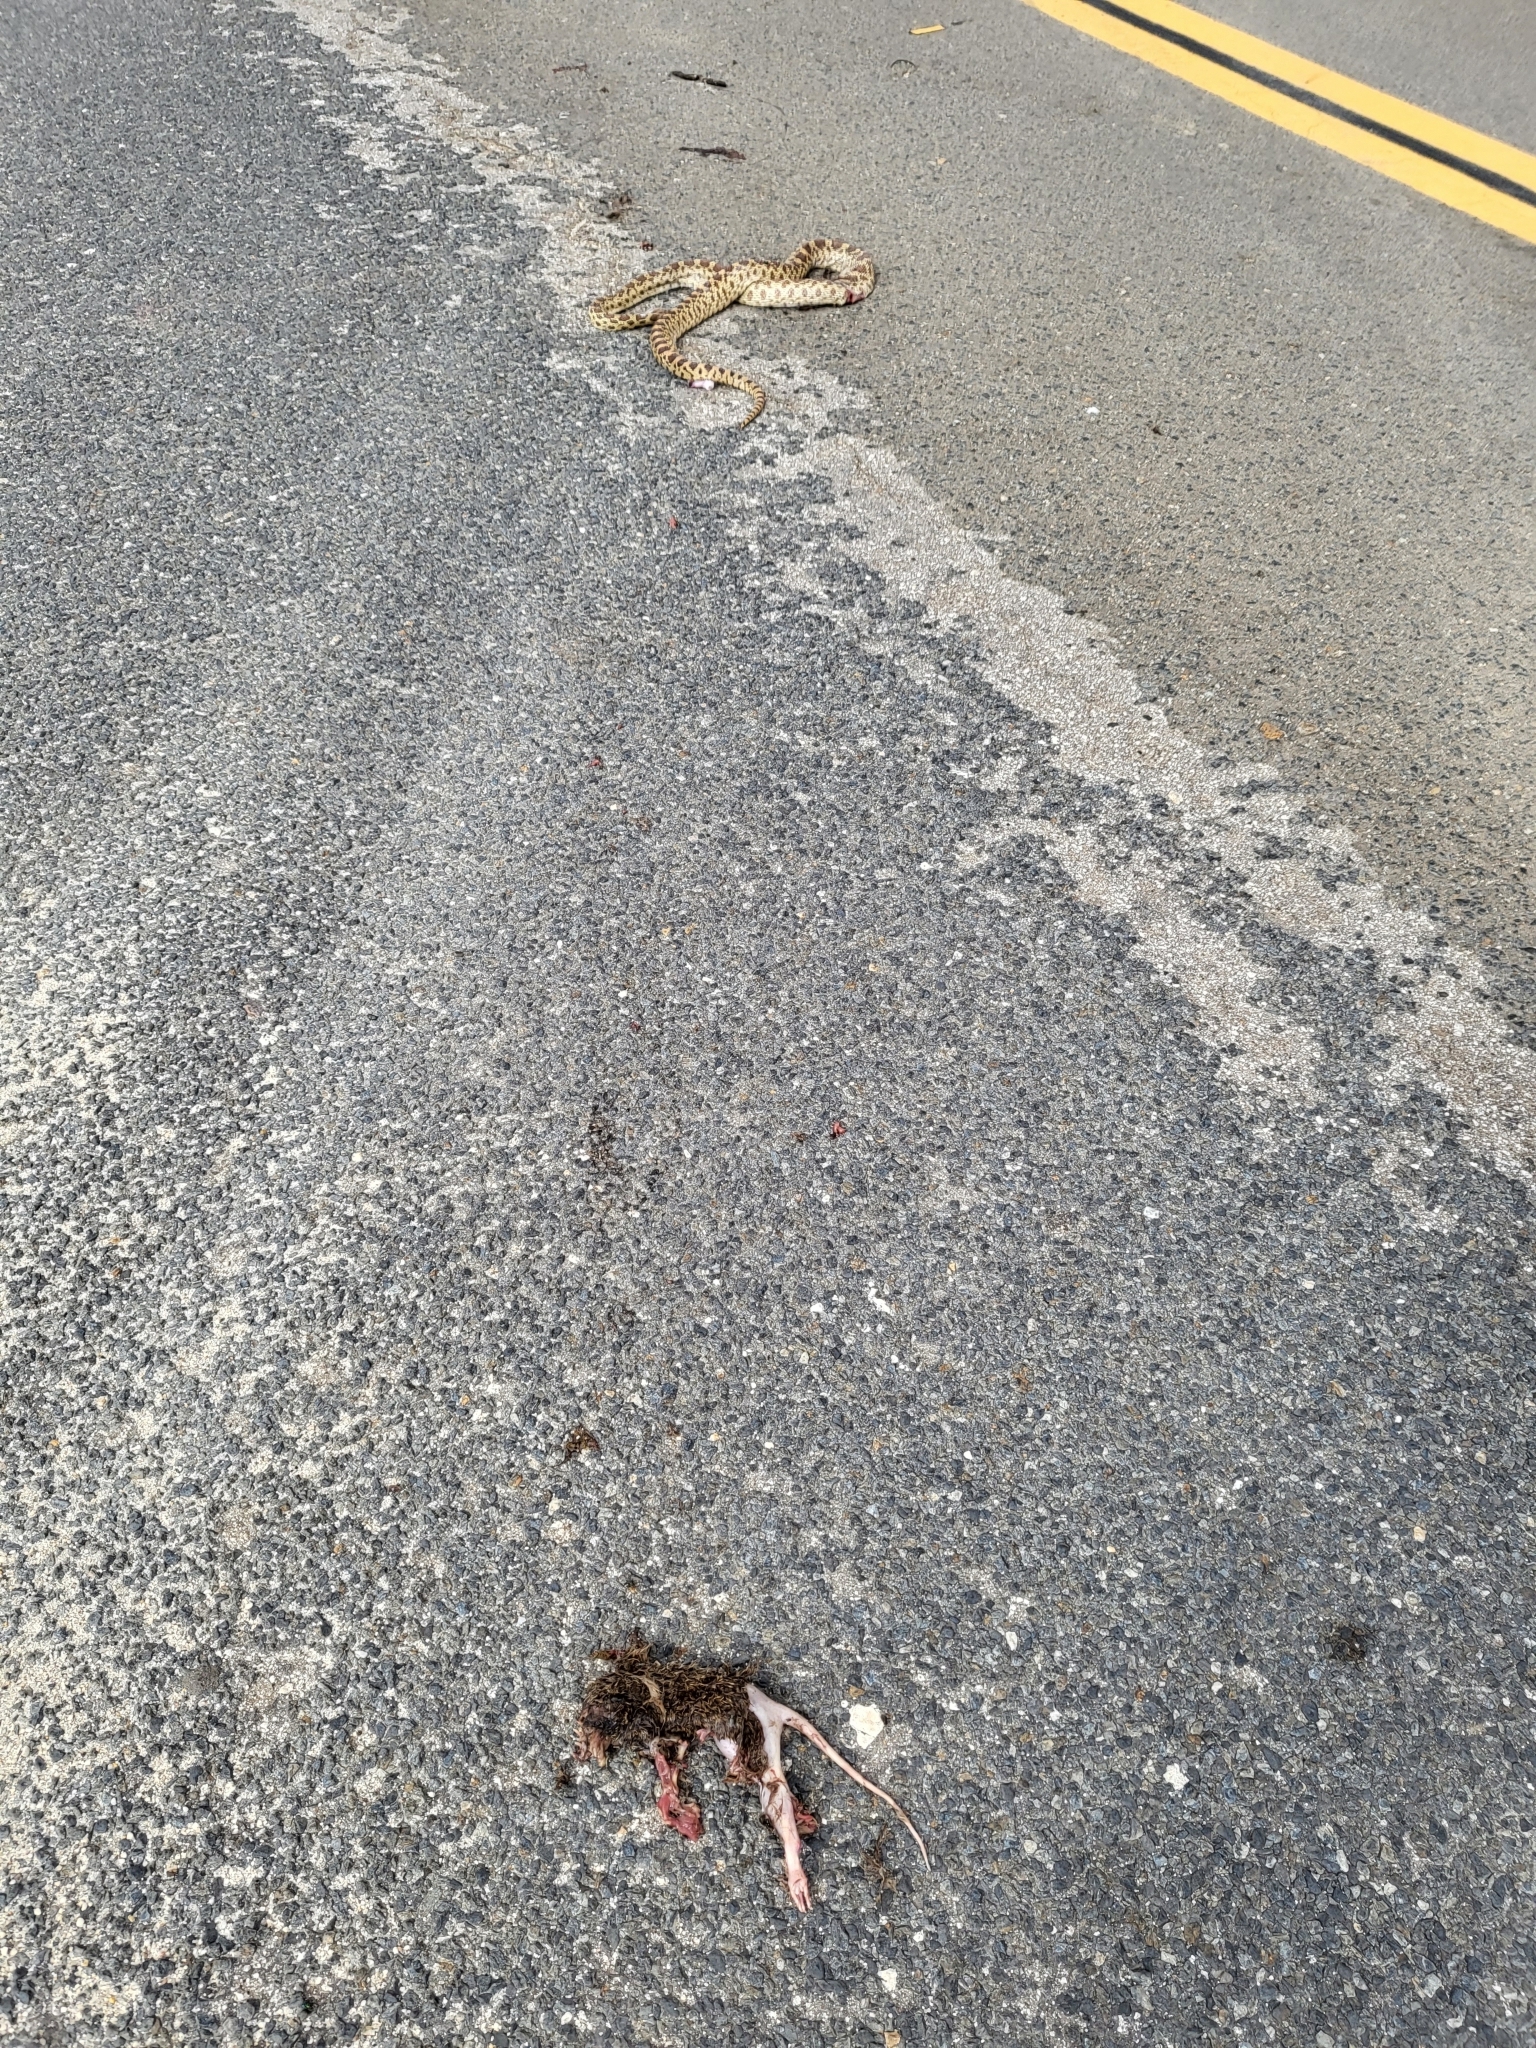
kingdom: Animalia
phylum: Chordata
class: Squamata
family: Colubridae
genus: Pituophis
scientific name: Pituophis catenifer
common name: Gopher snake
